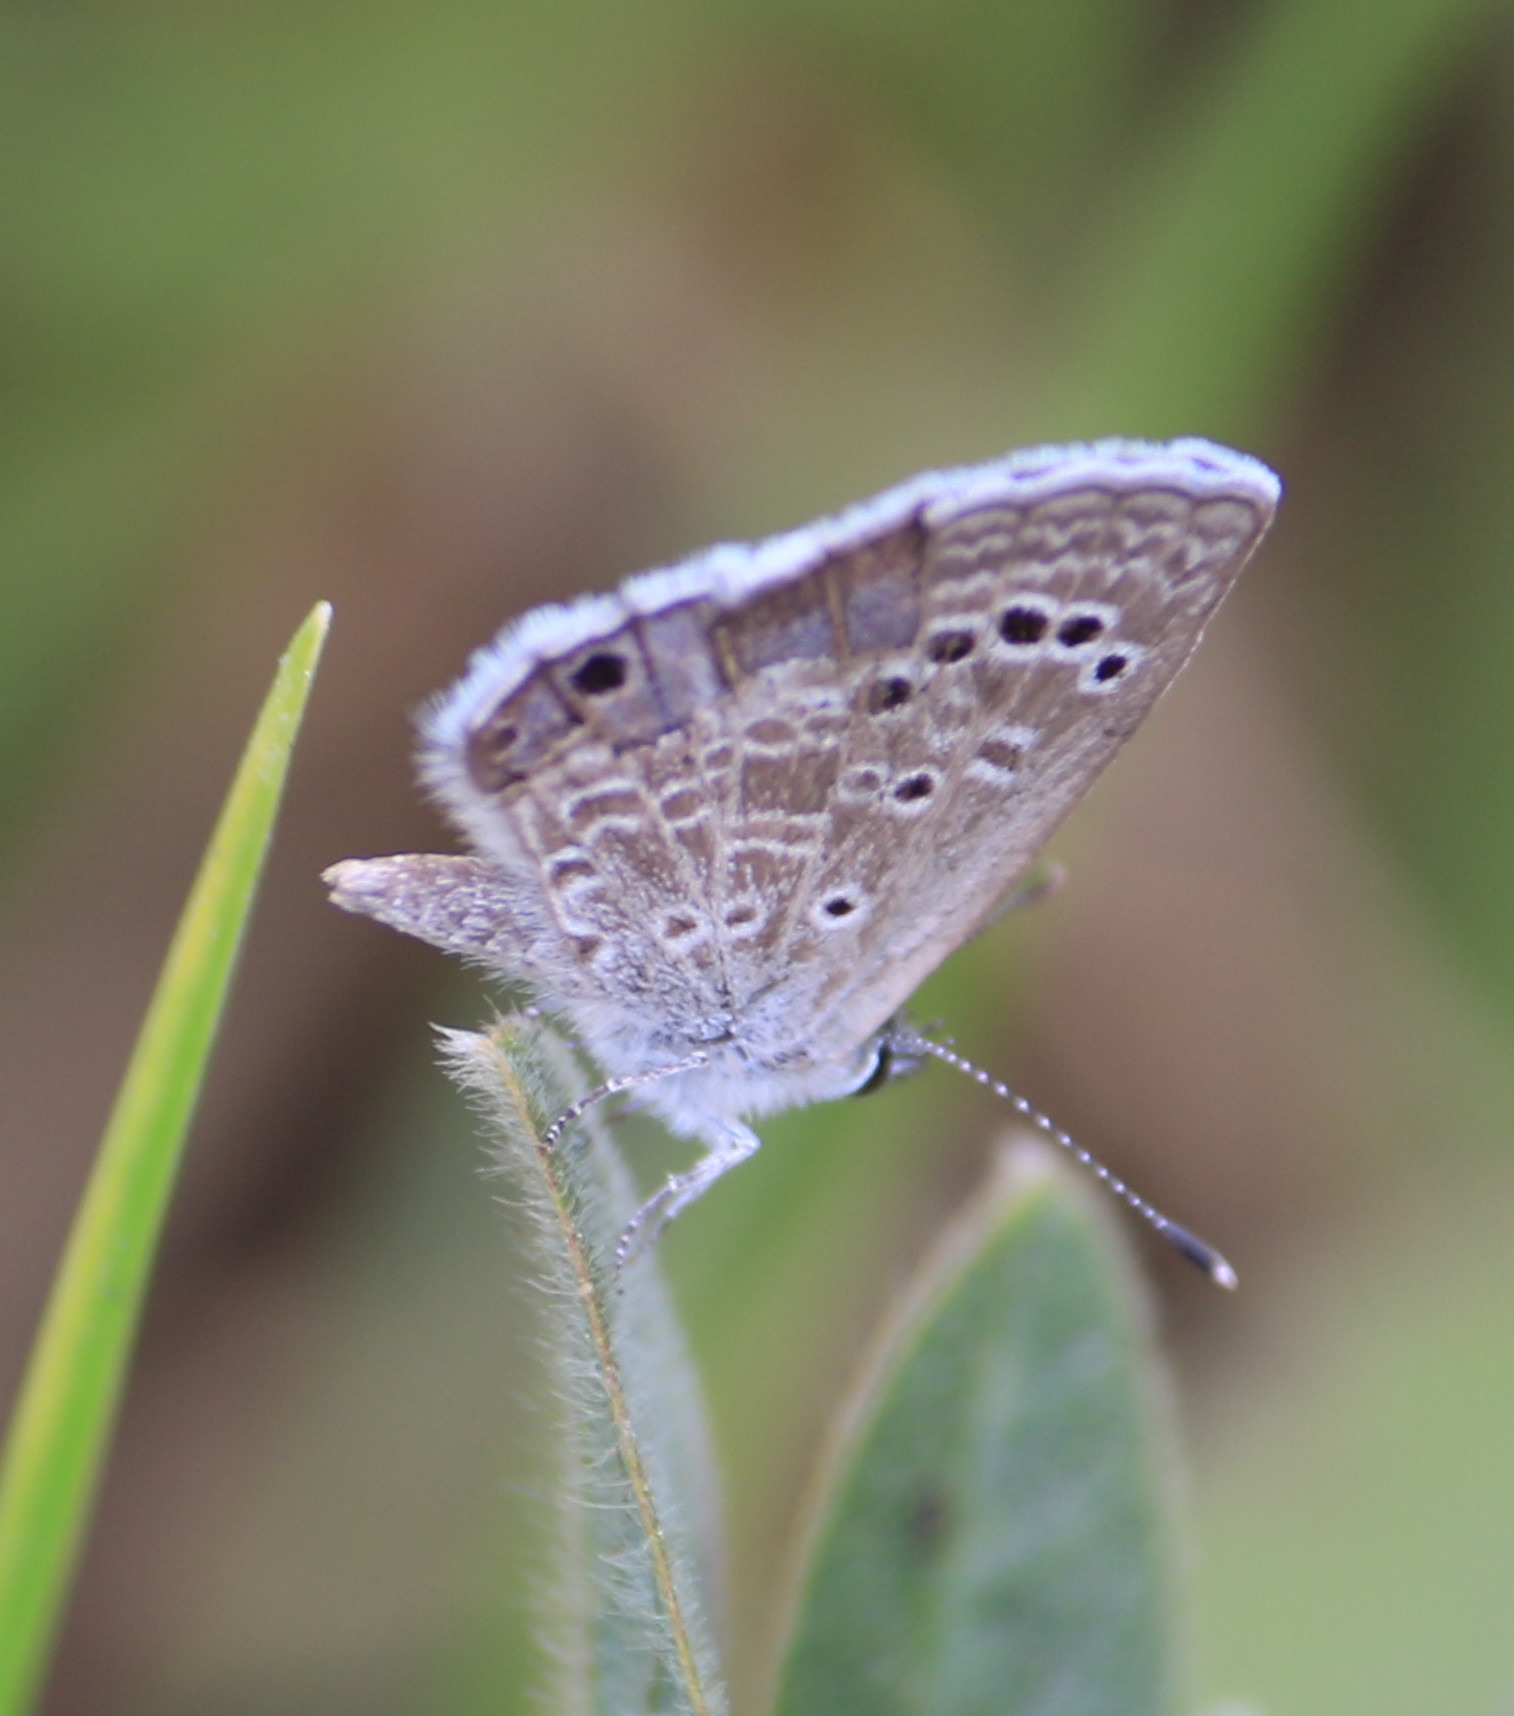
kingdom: Animalia
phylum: Arthropoda
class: Insecta
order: Lepidoptera
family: Lycaenidae
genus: Echinargus
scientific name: Echinargus isola
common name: Reakirt's blue
